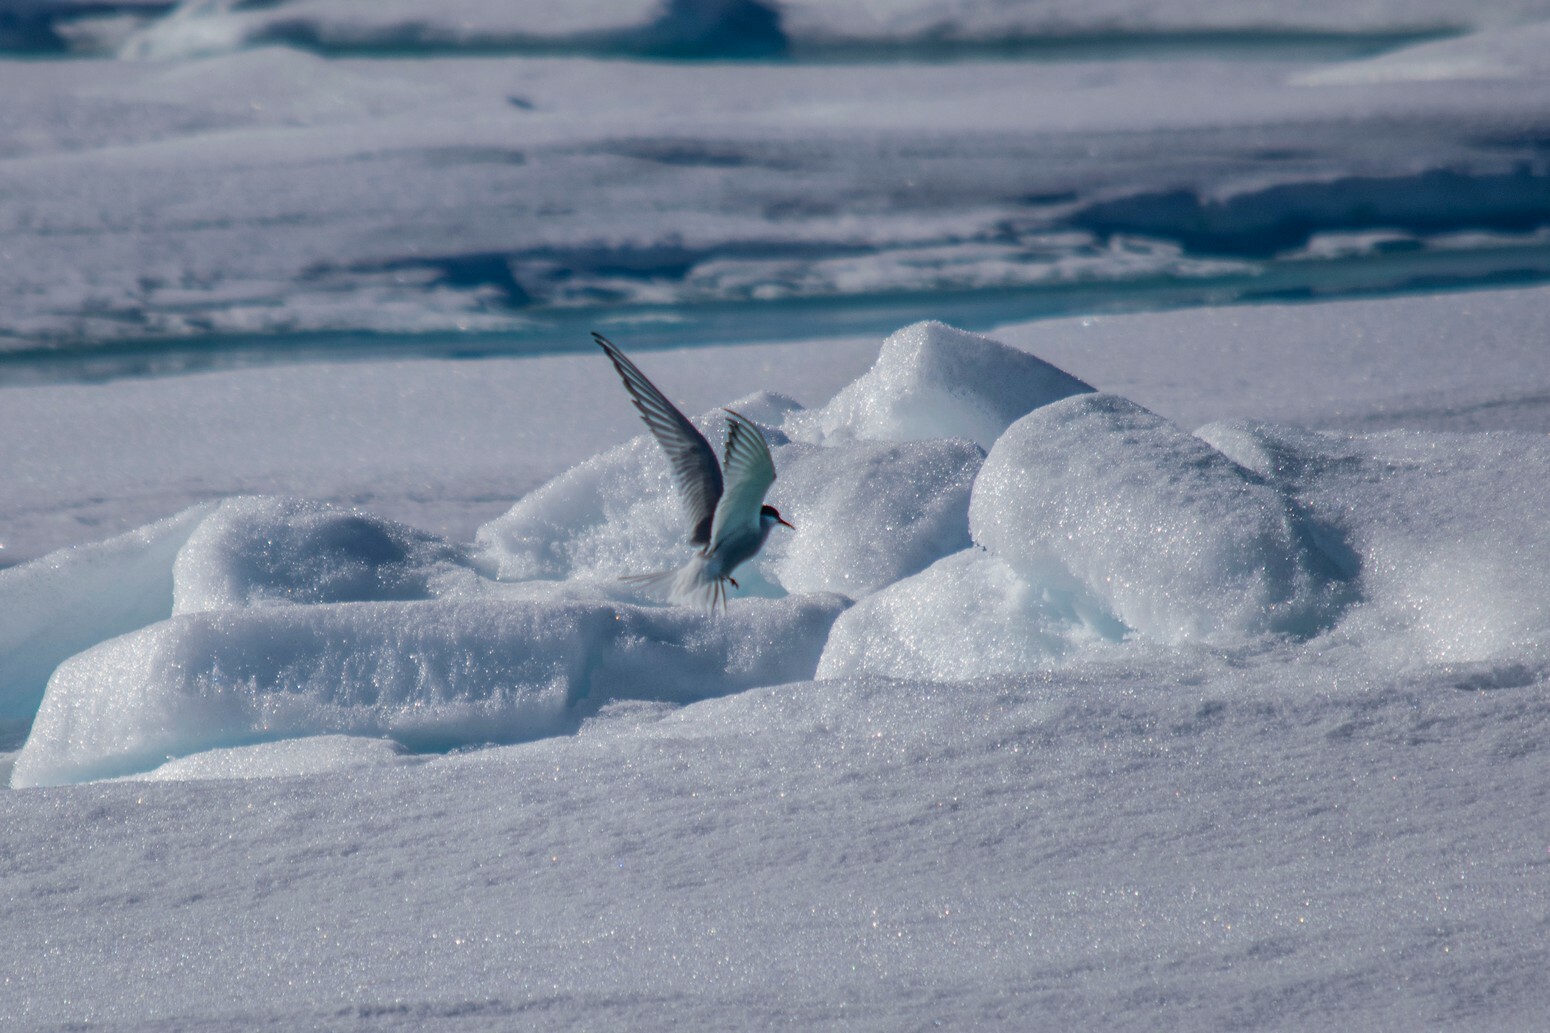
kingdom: Animalia
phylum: Chordata
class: Aves
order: Charadriiformes
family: Laridae
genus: Sterna
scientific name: Sterna paradisaea
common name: Arctic tern
